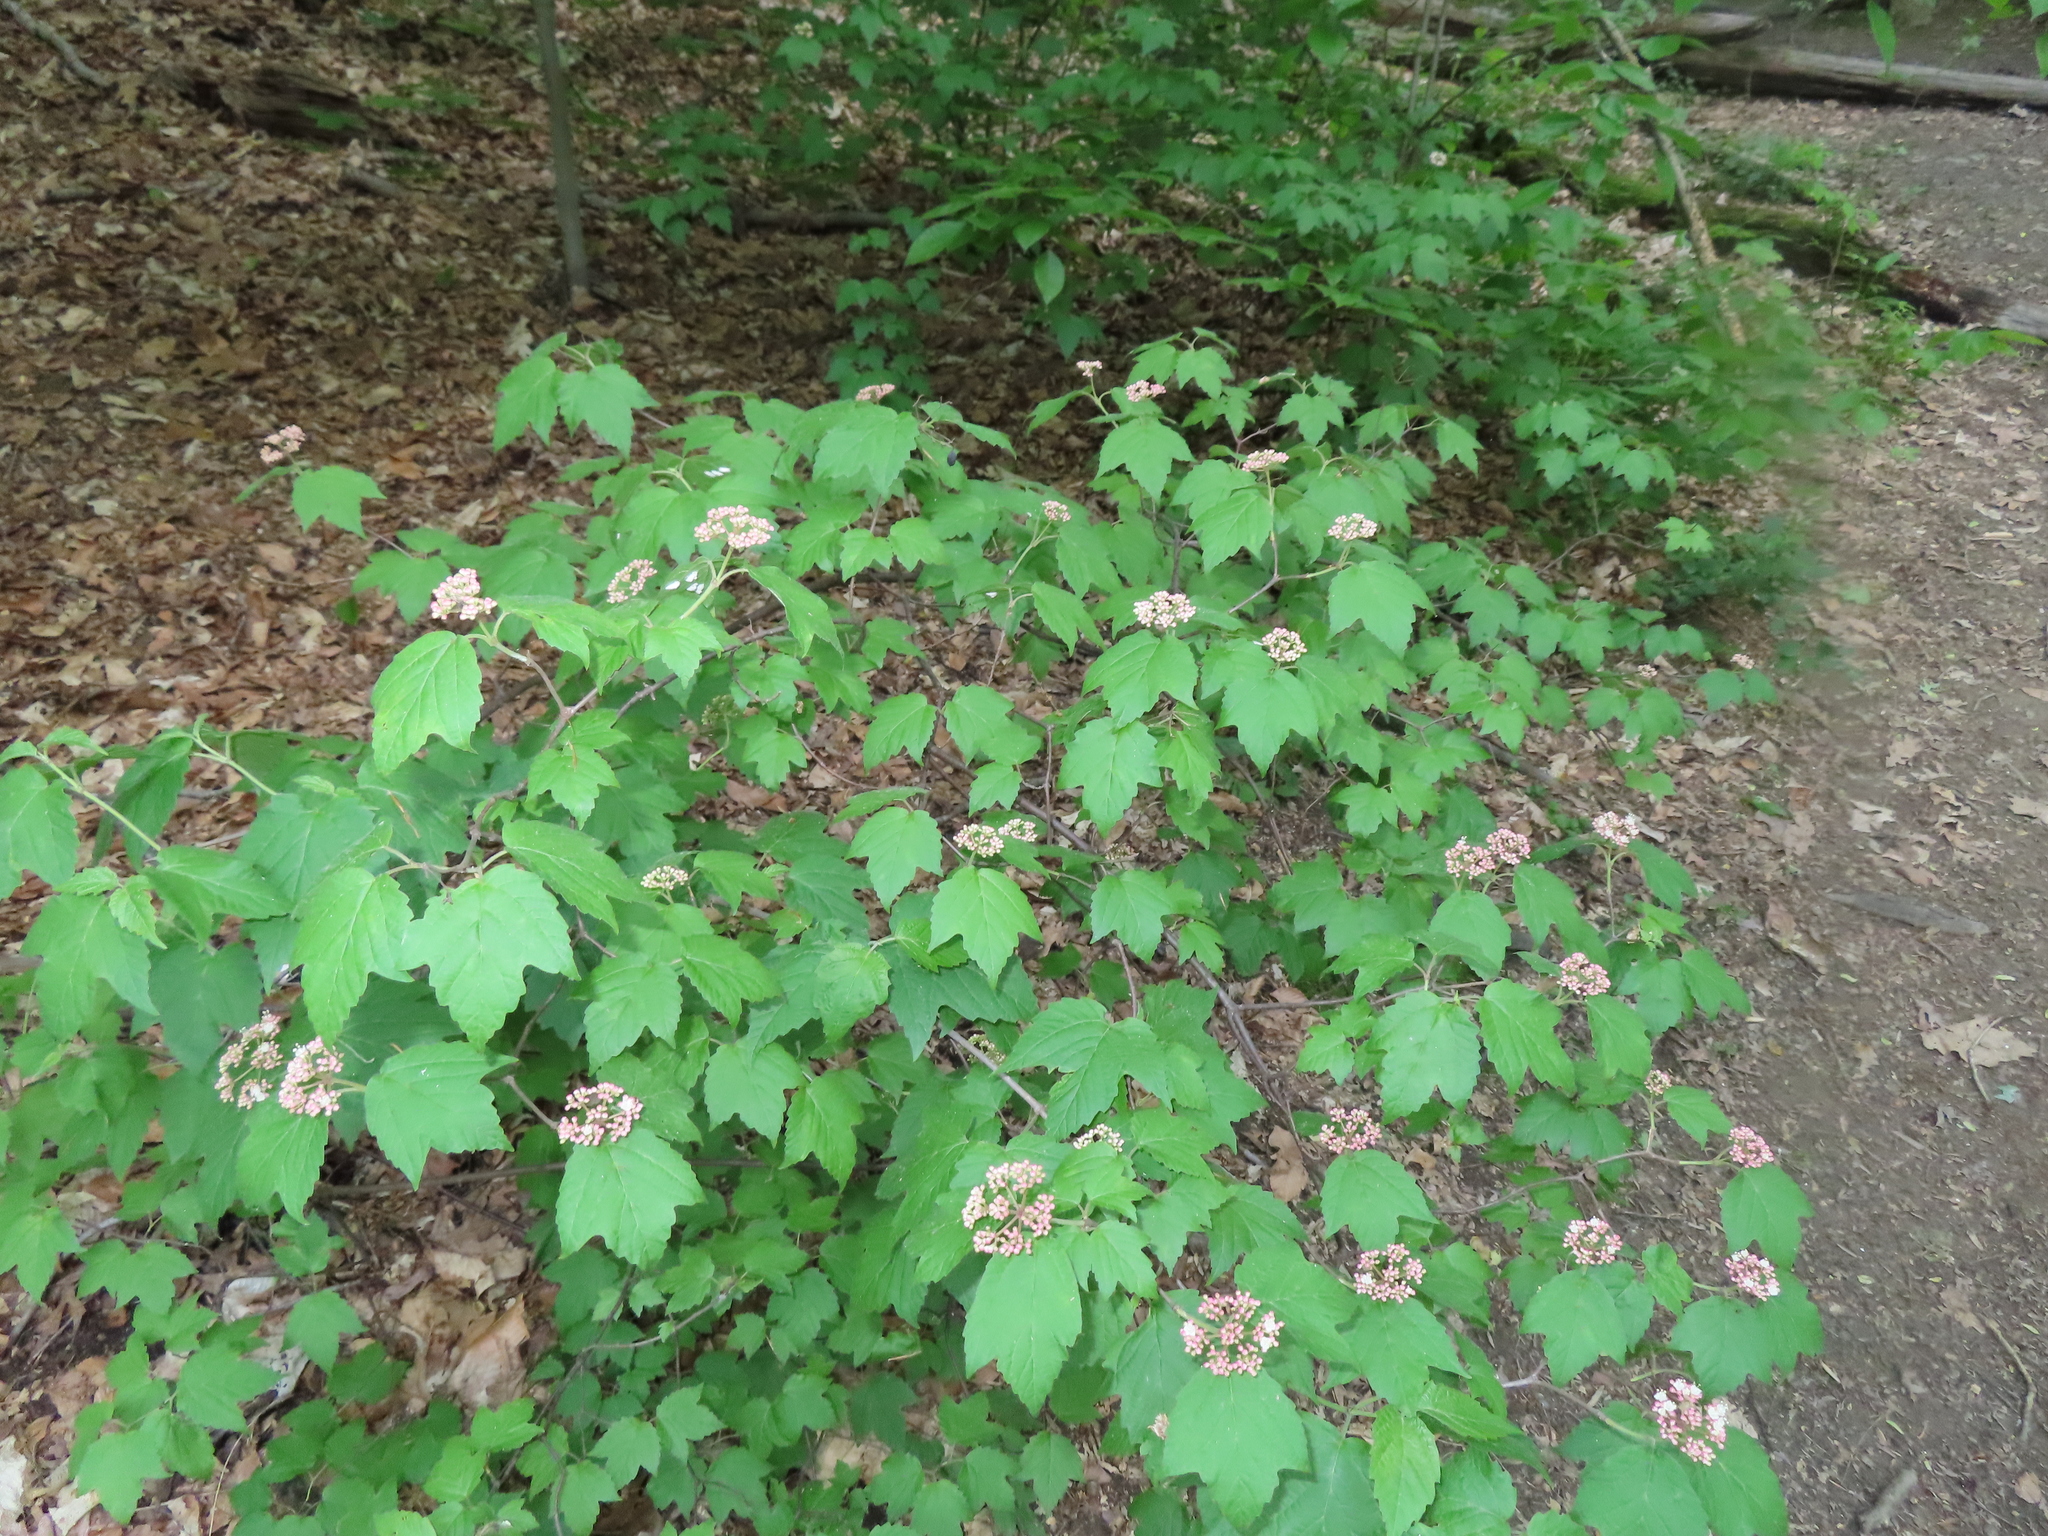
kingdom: Plantae
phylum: Tracheophyta
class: Magnoliopsida
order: Dipsacales
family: Viburnaceae
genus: Viburnum
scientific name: Viburnum acerifolium
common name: Dockmackie
